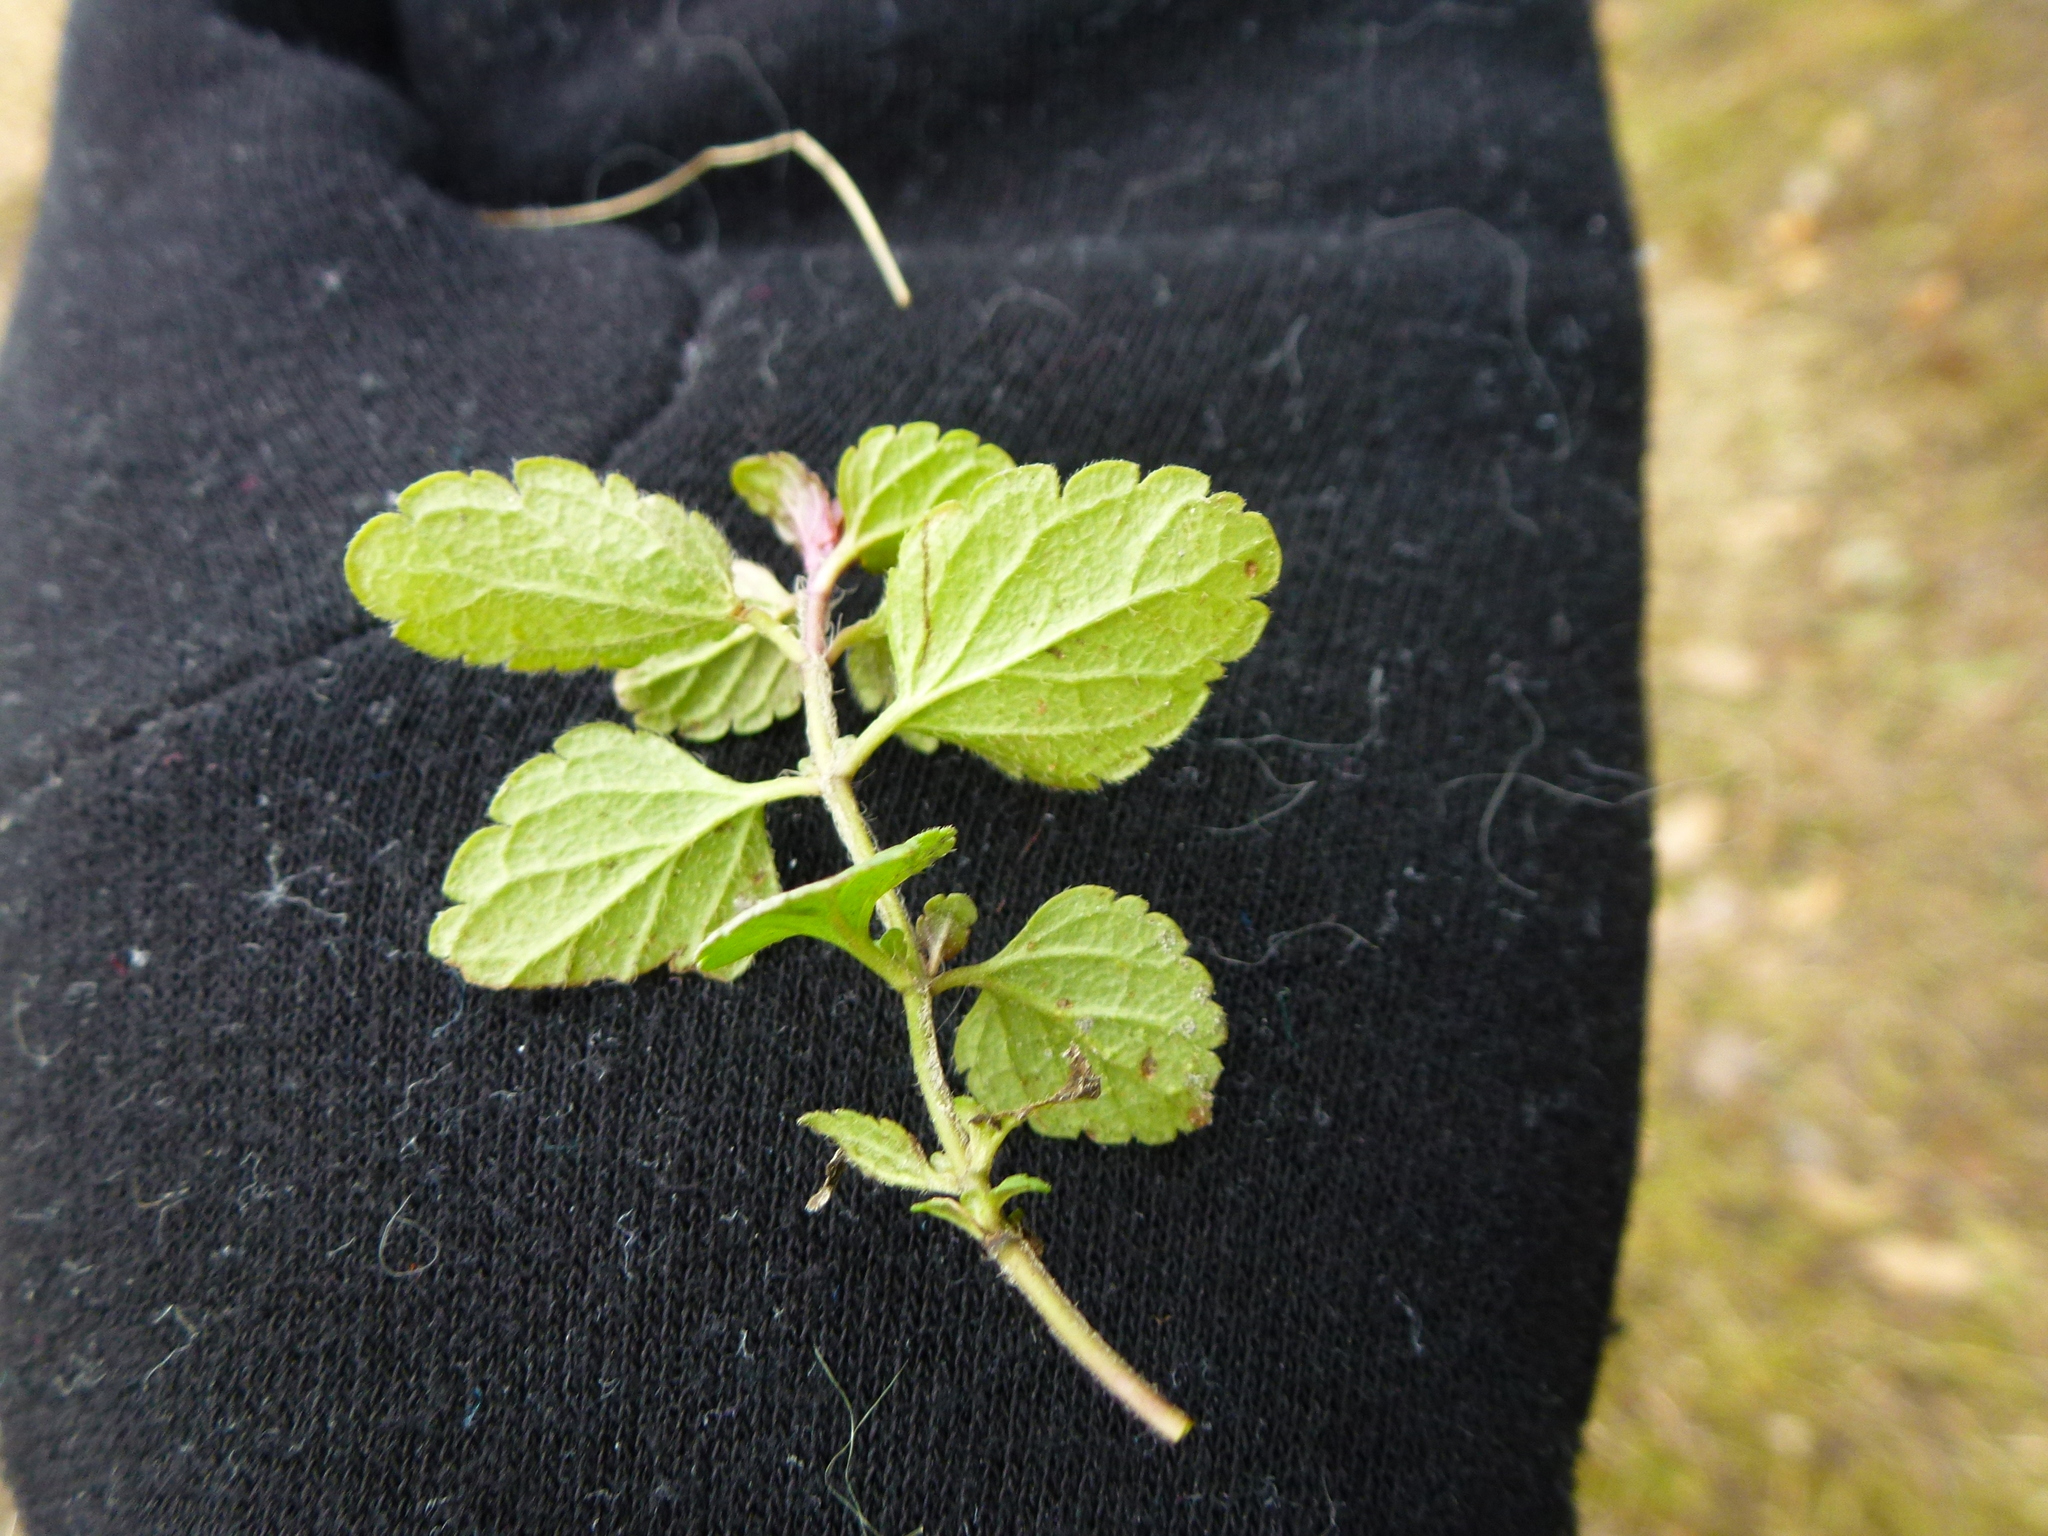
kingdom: Plantae
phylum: Tracheophyta
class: Magnoliopsida
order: Lamiales
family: Plantaginaceae
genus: Veronica
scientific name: Veronica chamaedrys
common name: Germander speedwell
